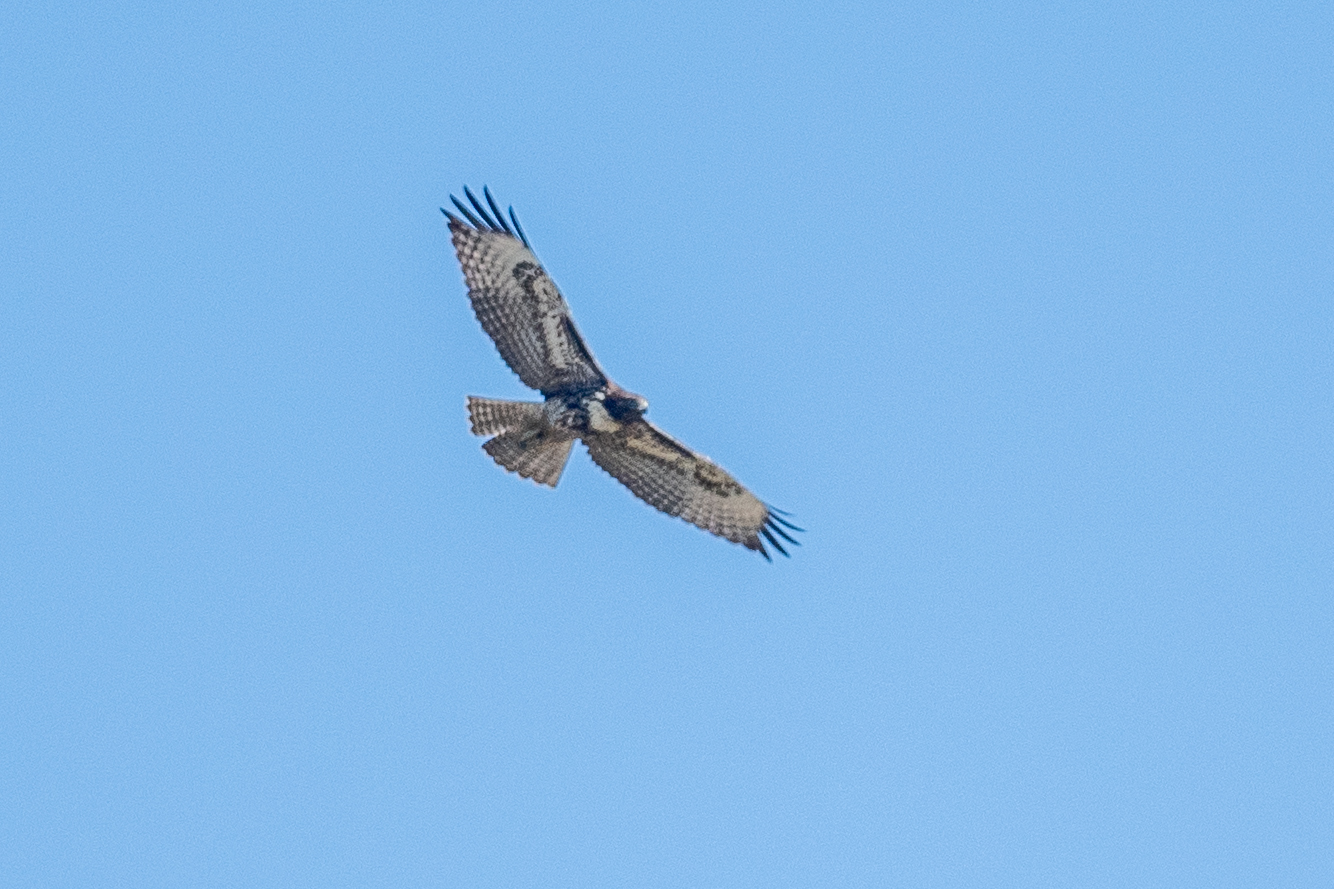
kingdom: Animalia
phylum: Chordata
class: Aves
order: Accipitriformes
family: Accipitridae
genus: Buteo
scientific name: Buteo jamaicensis
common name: Red-tailed hawk
